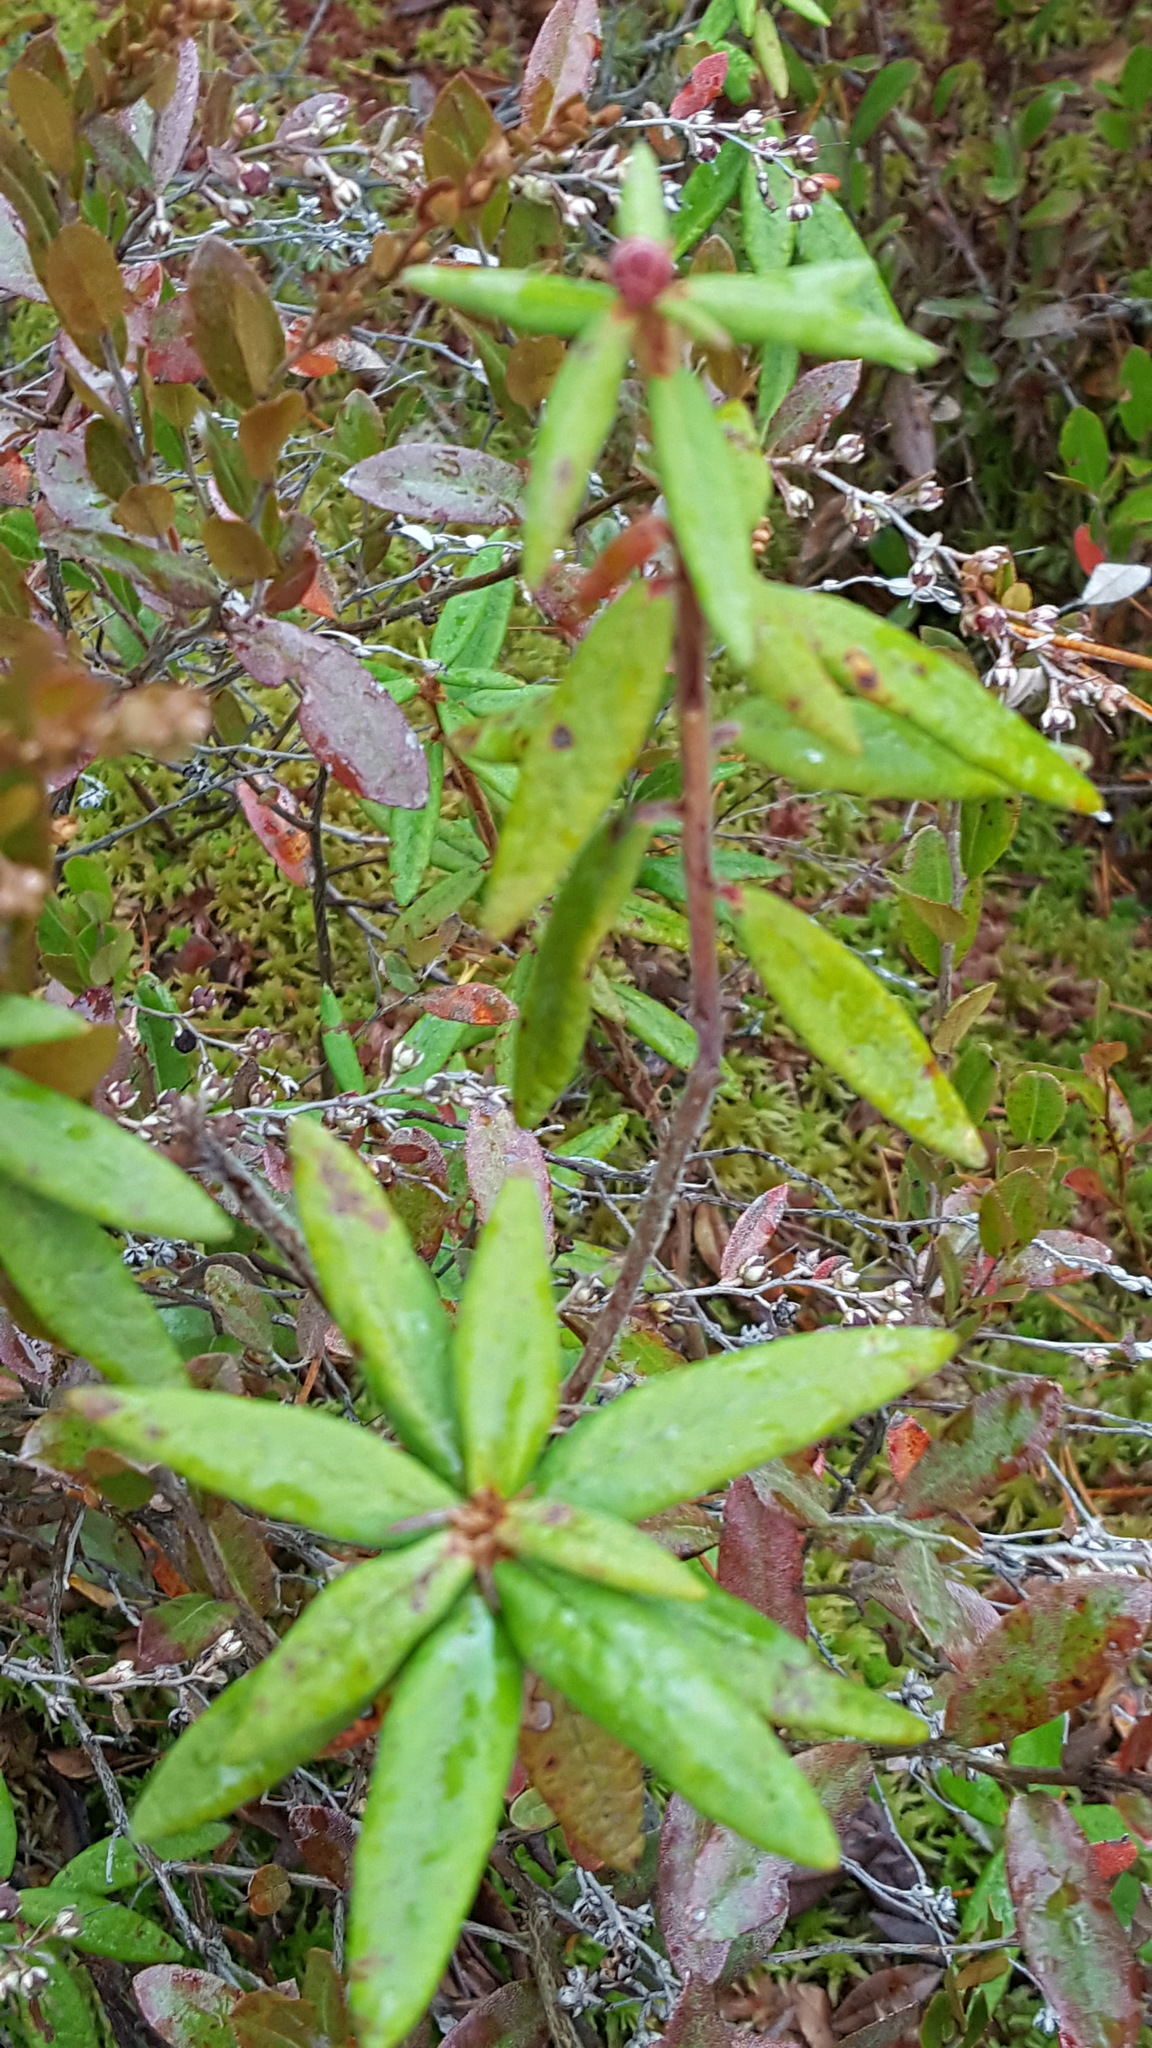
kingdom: Plantae
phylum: Tracheophyta
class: Magnoliopsida
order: Ericales
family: Ericaceae
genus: Rhododendron
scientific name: Rhododendron groenlandicum
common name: Bog labrador tea
